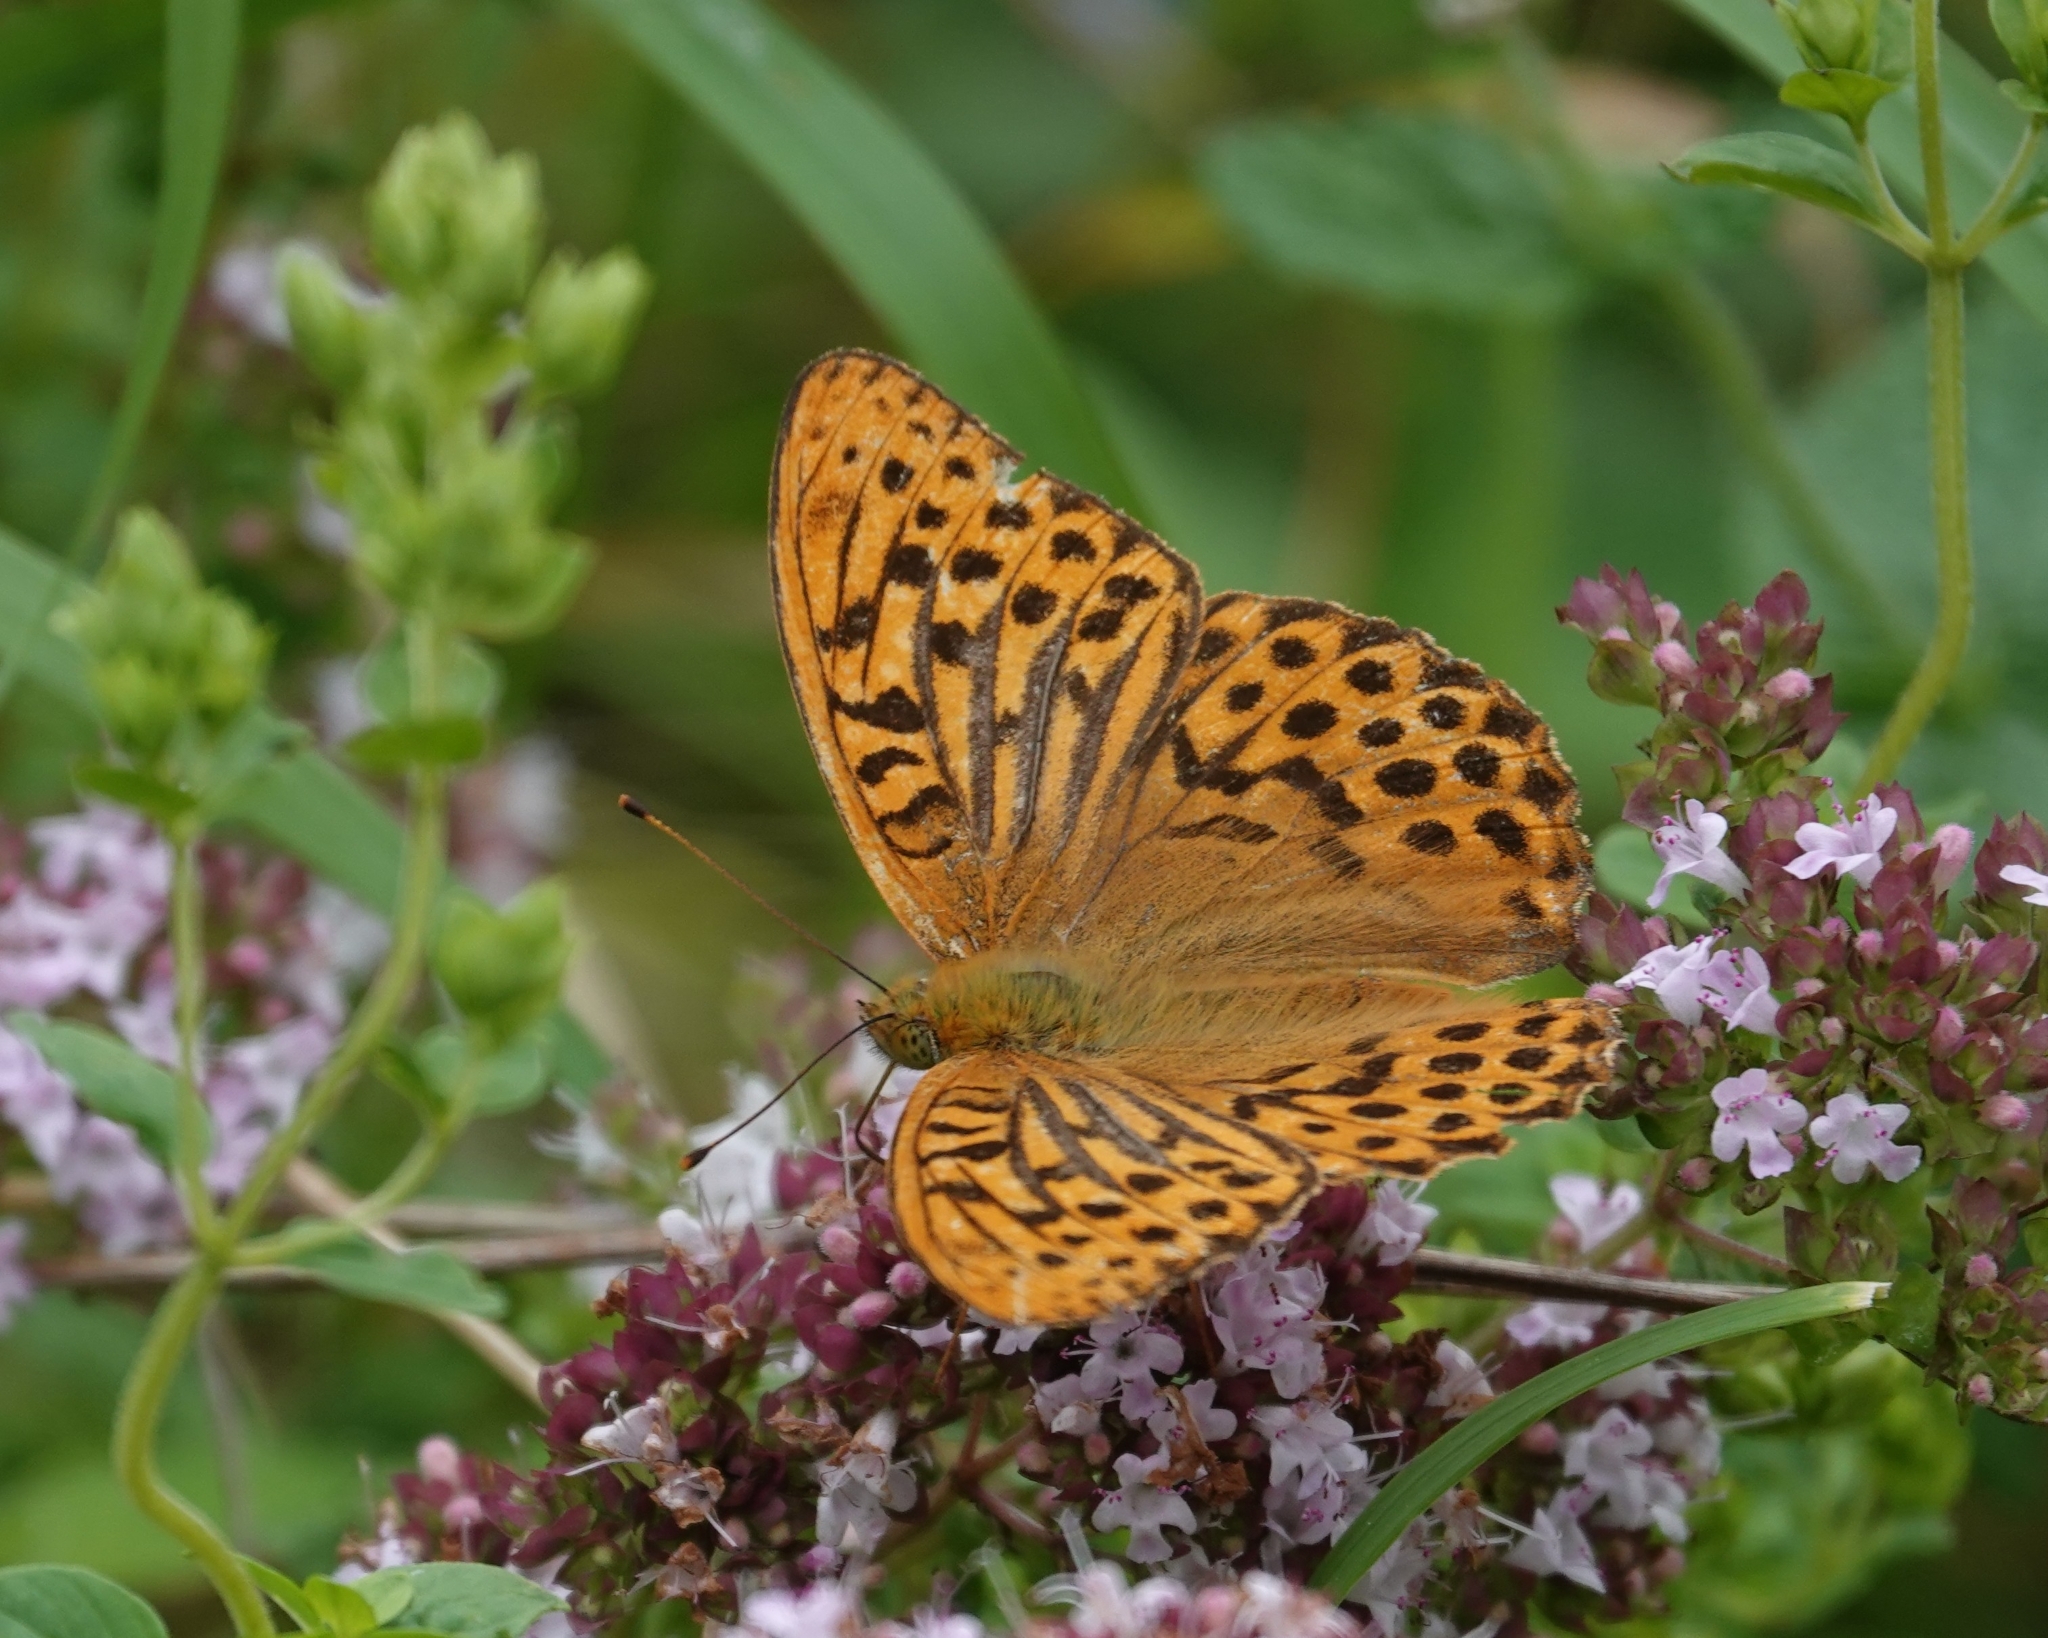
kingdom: Animalia
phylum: Arthropoda
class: Insecta
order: Lepidoptera
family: Nymphalidae
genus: Argynnis
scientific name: Argynnis paphia
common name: Silver-washed fritillary
